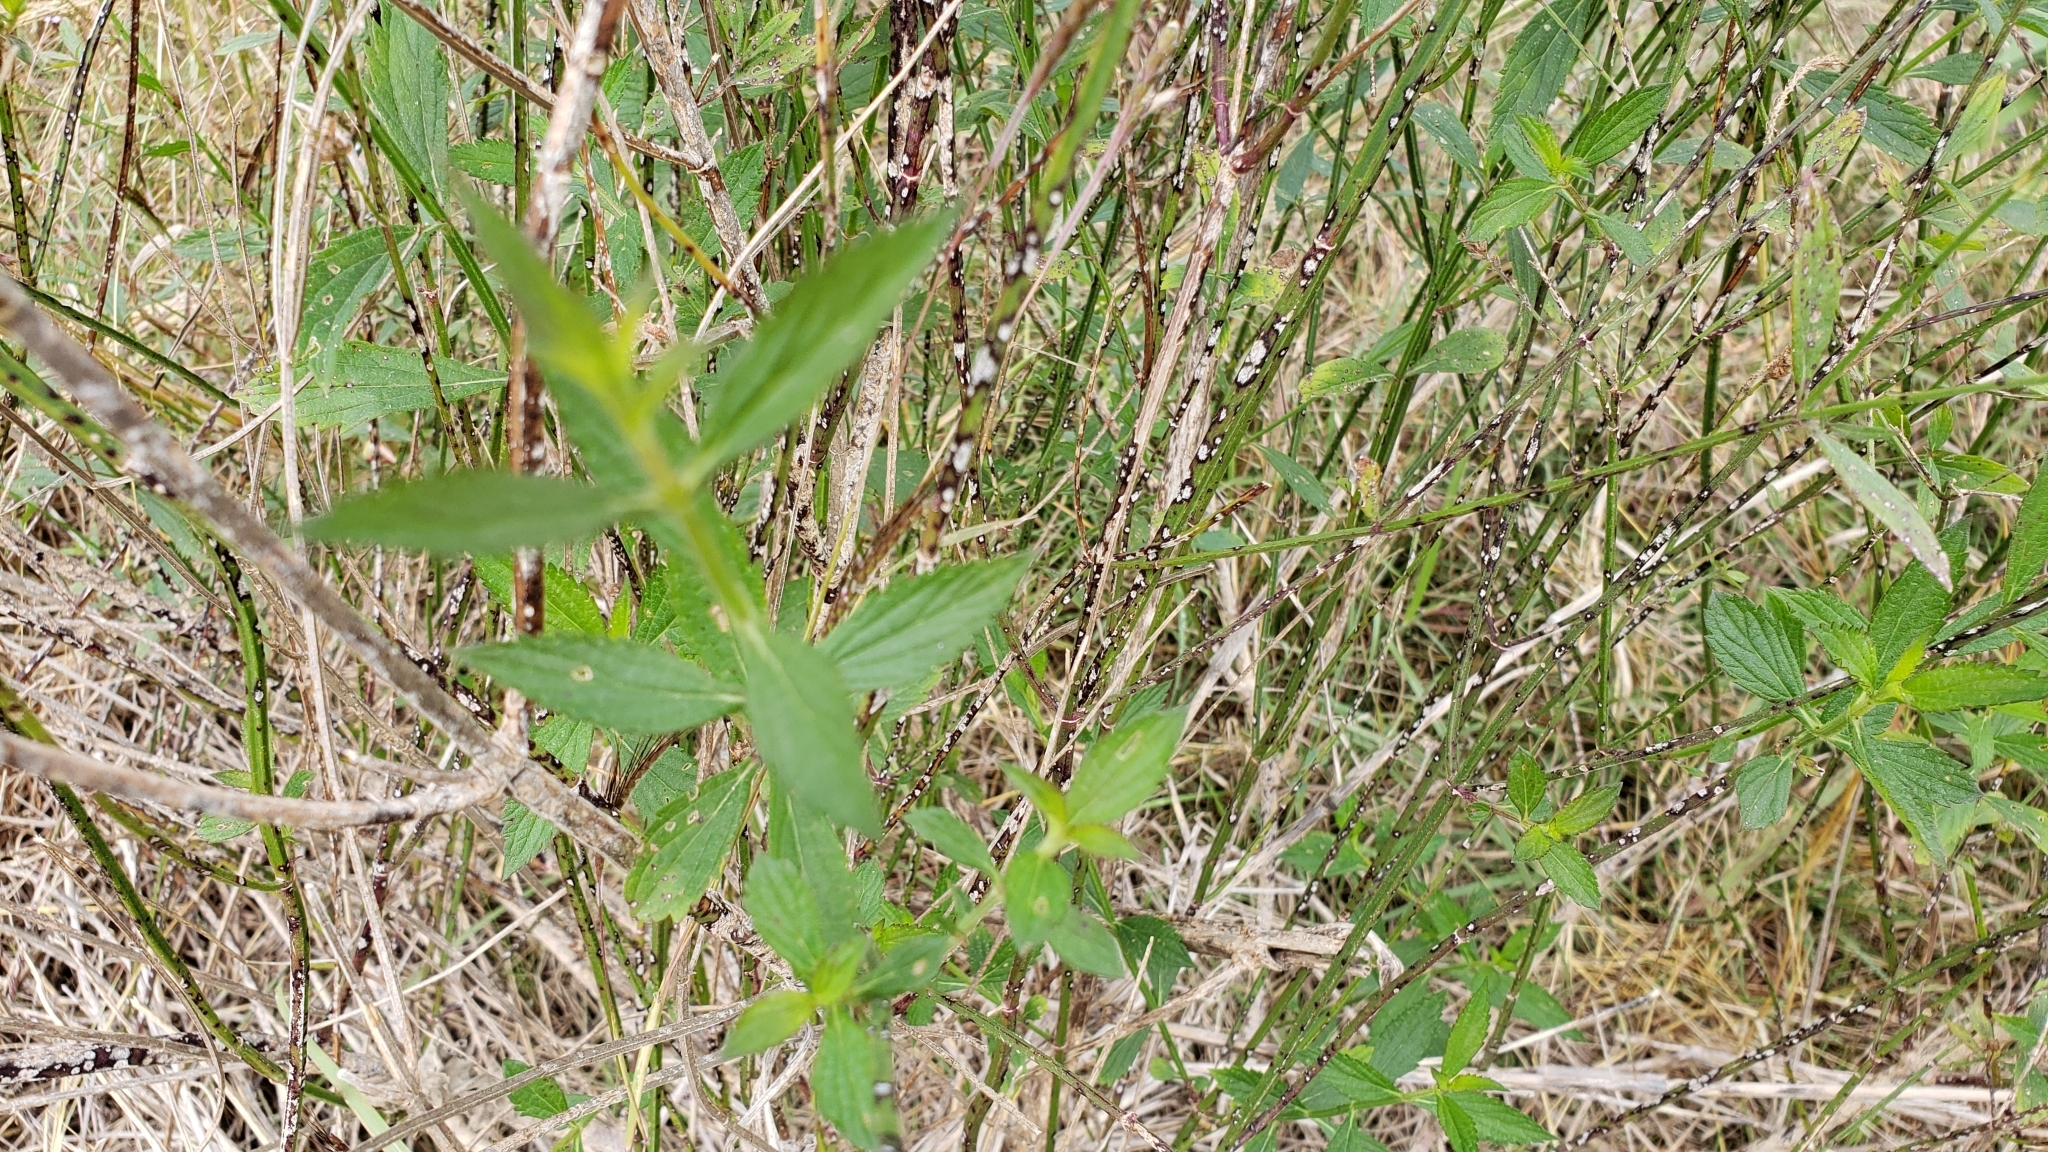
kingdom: Plantae
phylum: Tracheophyta
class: Magnoliopsida
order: Lamiales
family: Verbenaceae
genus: Verbena
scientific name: Verbena brasiliensis
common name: Brazilian vervain
